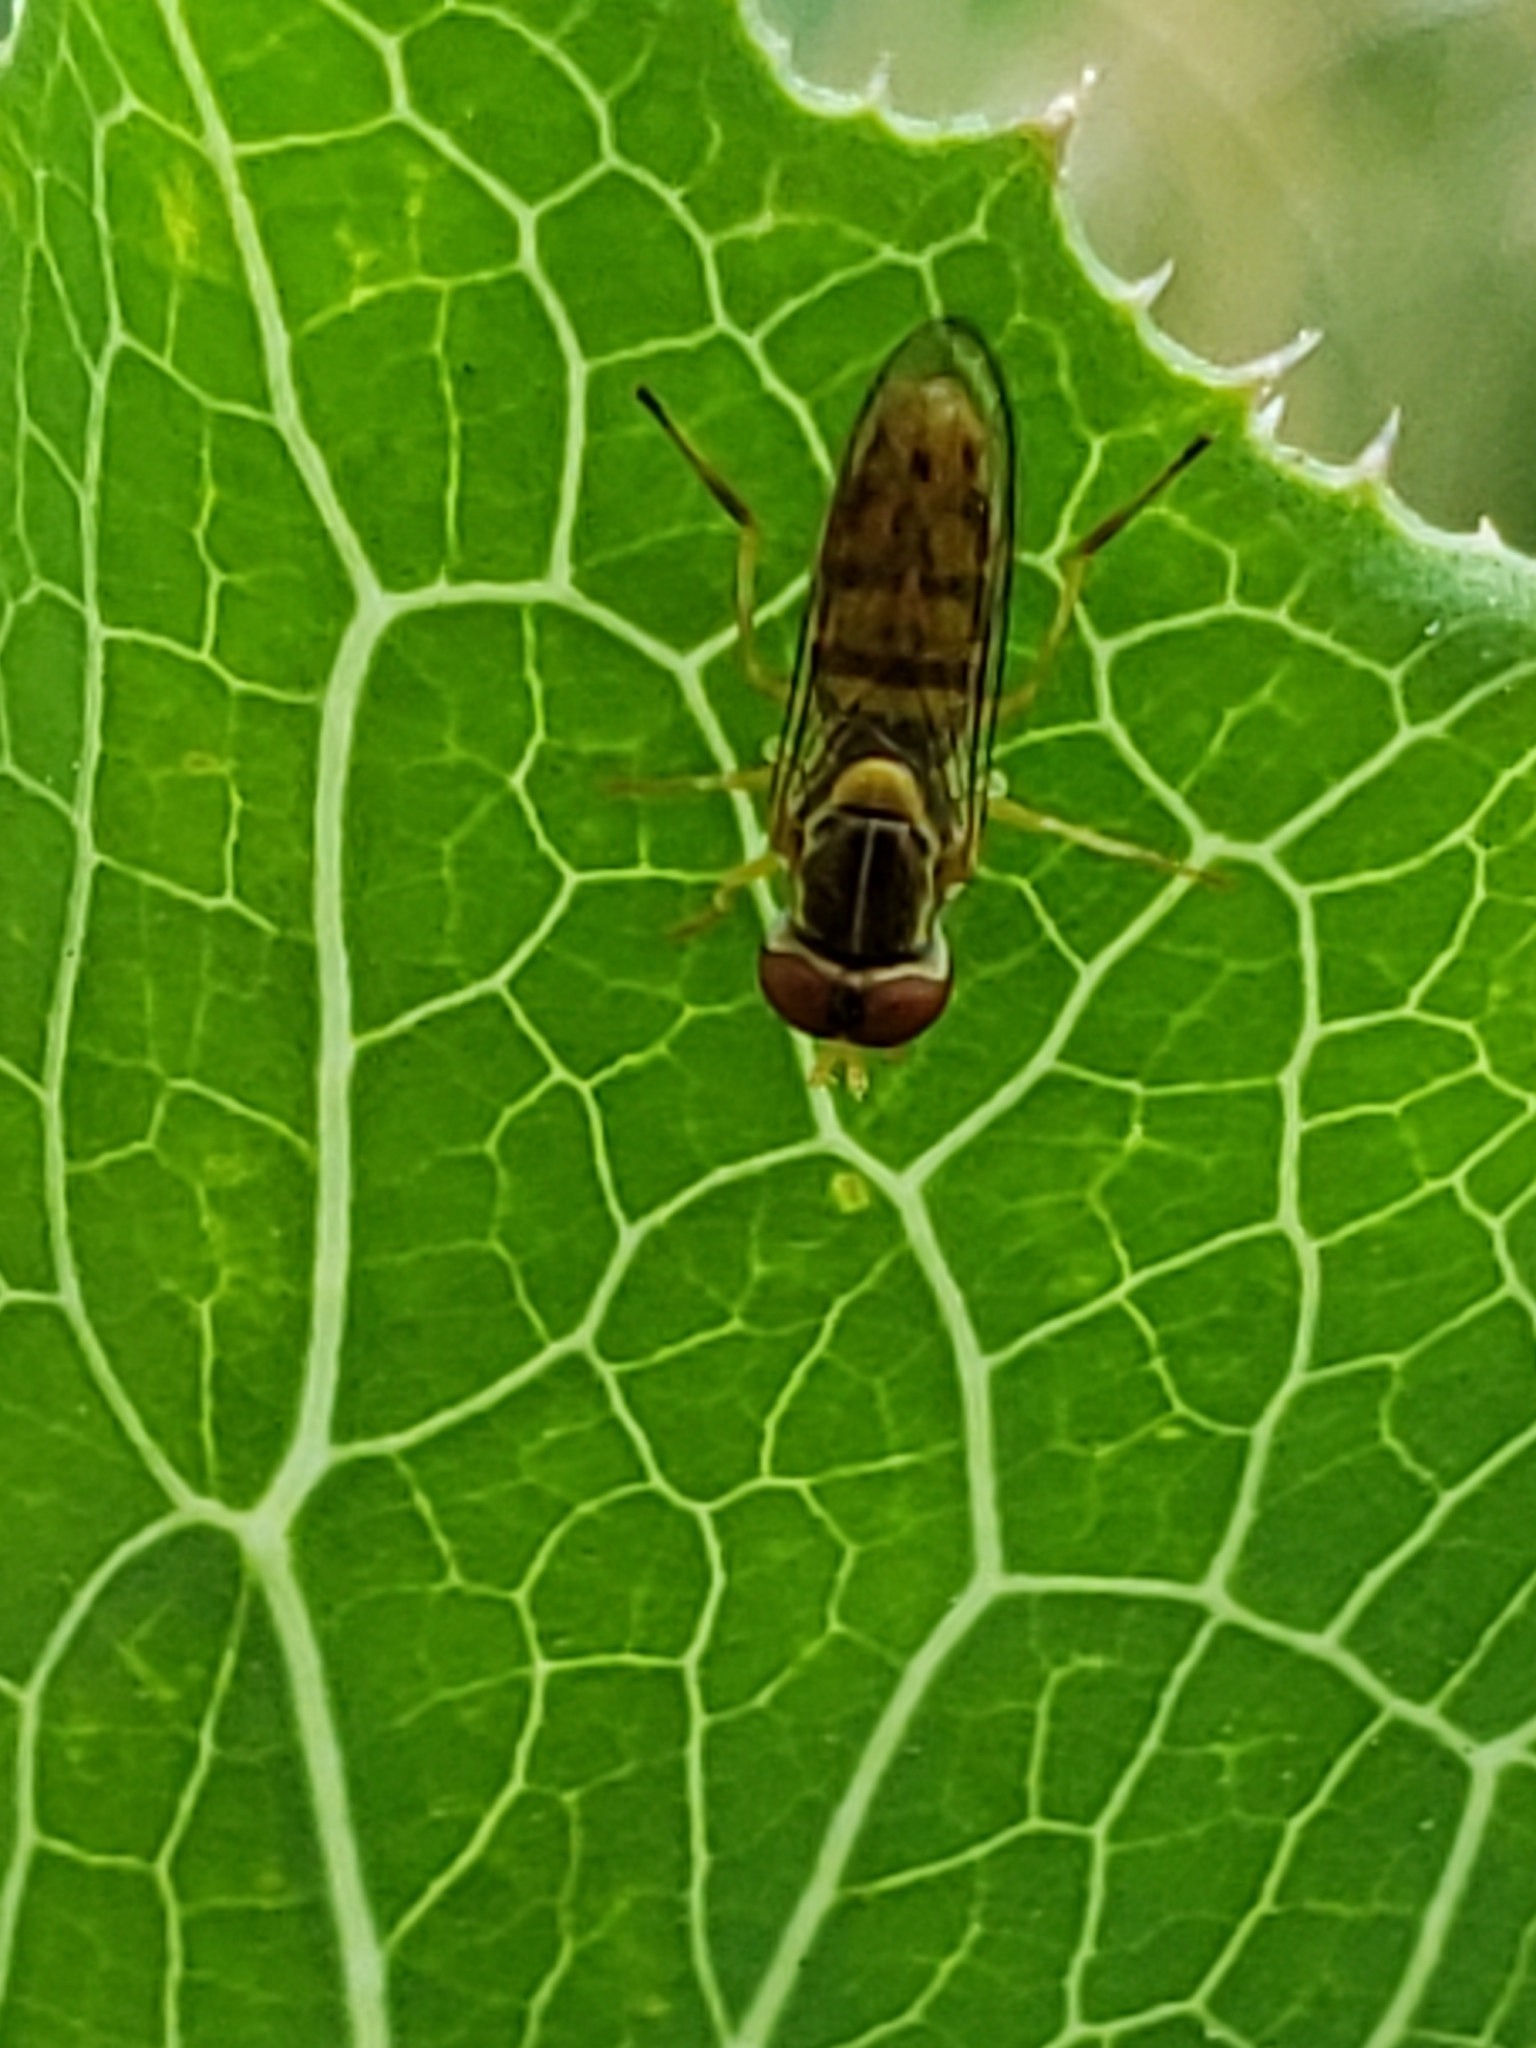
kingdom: Animalia
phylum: Arthropoda
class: Insecta
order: Diptera
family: Syrphidae
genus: Toxomerus
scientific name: Toxomerus marginatus
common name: Syrphid fly
